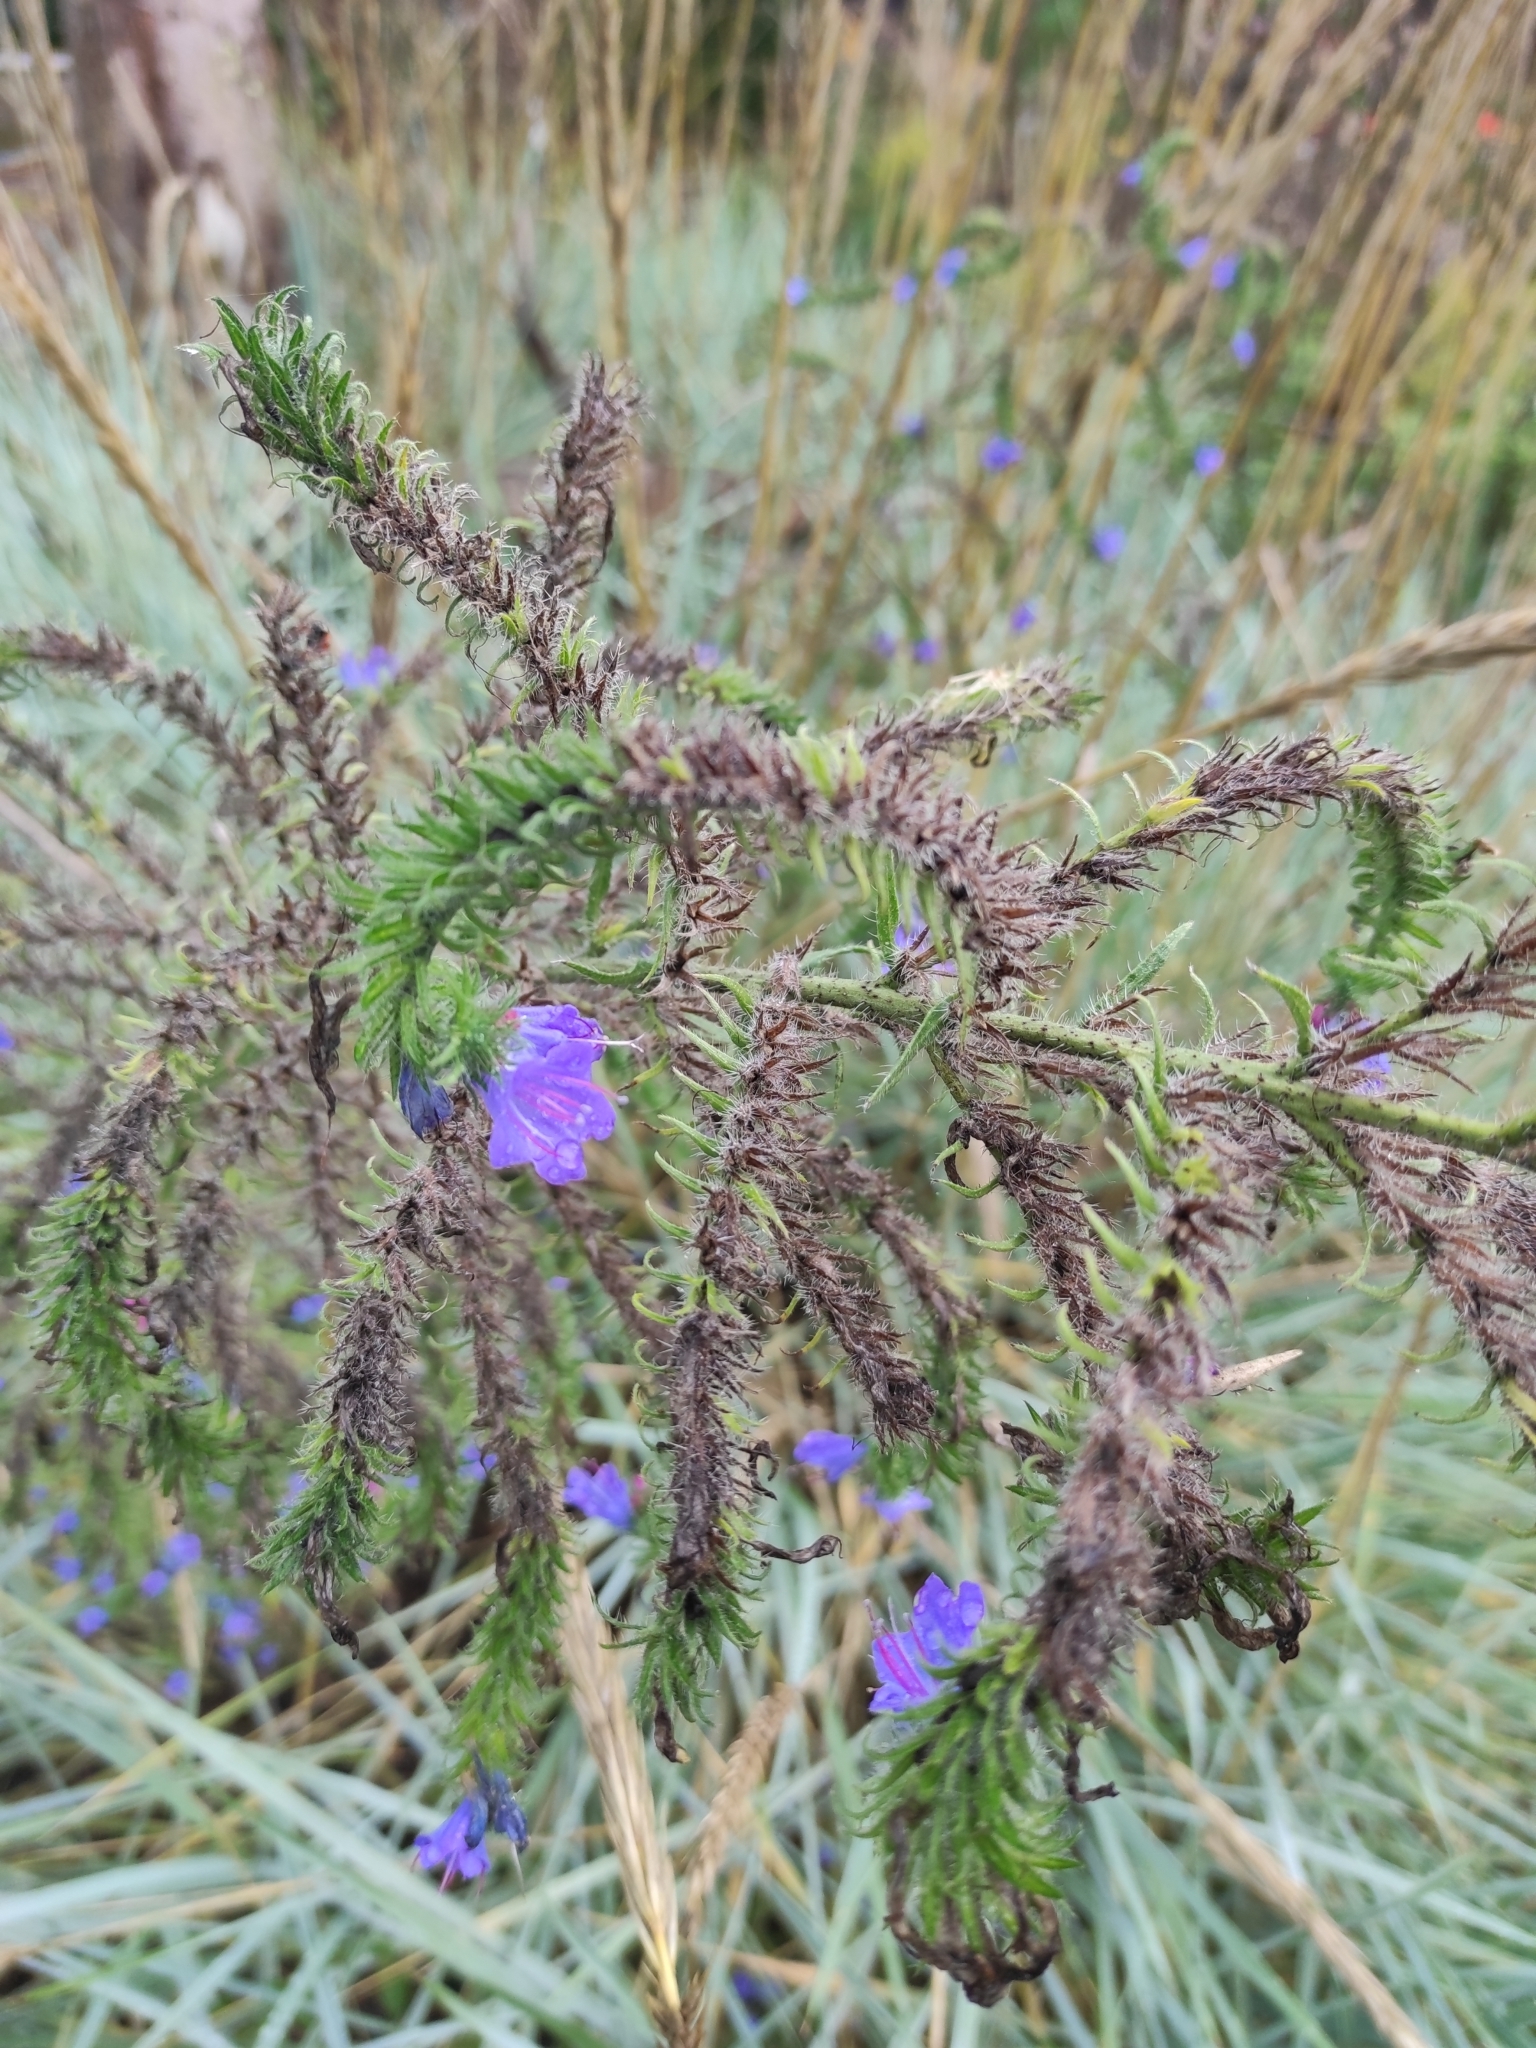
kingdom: Plantae
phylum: Tracheophyta
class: Magnoliopsida
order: Boraginales
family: Boraginaceae
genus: Echium
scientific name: Echium vulgare
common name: Common viper's bugloss
